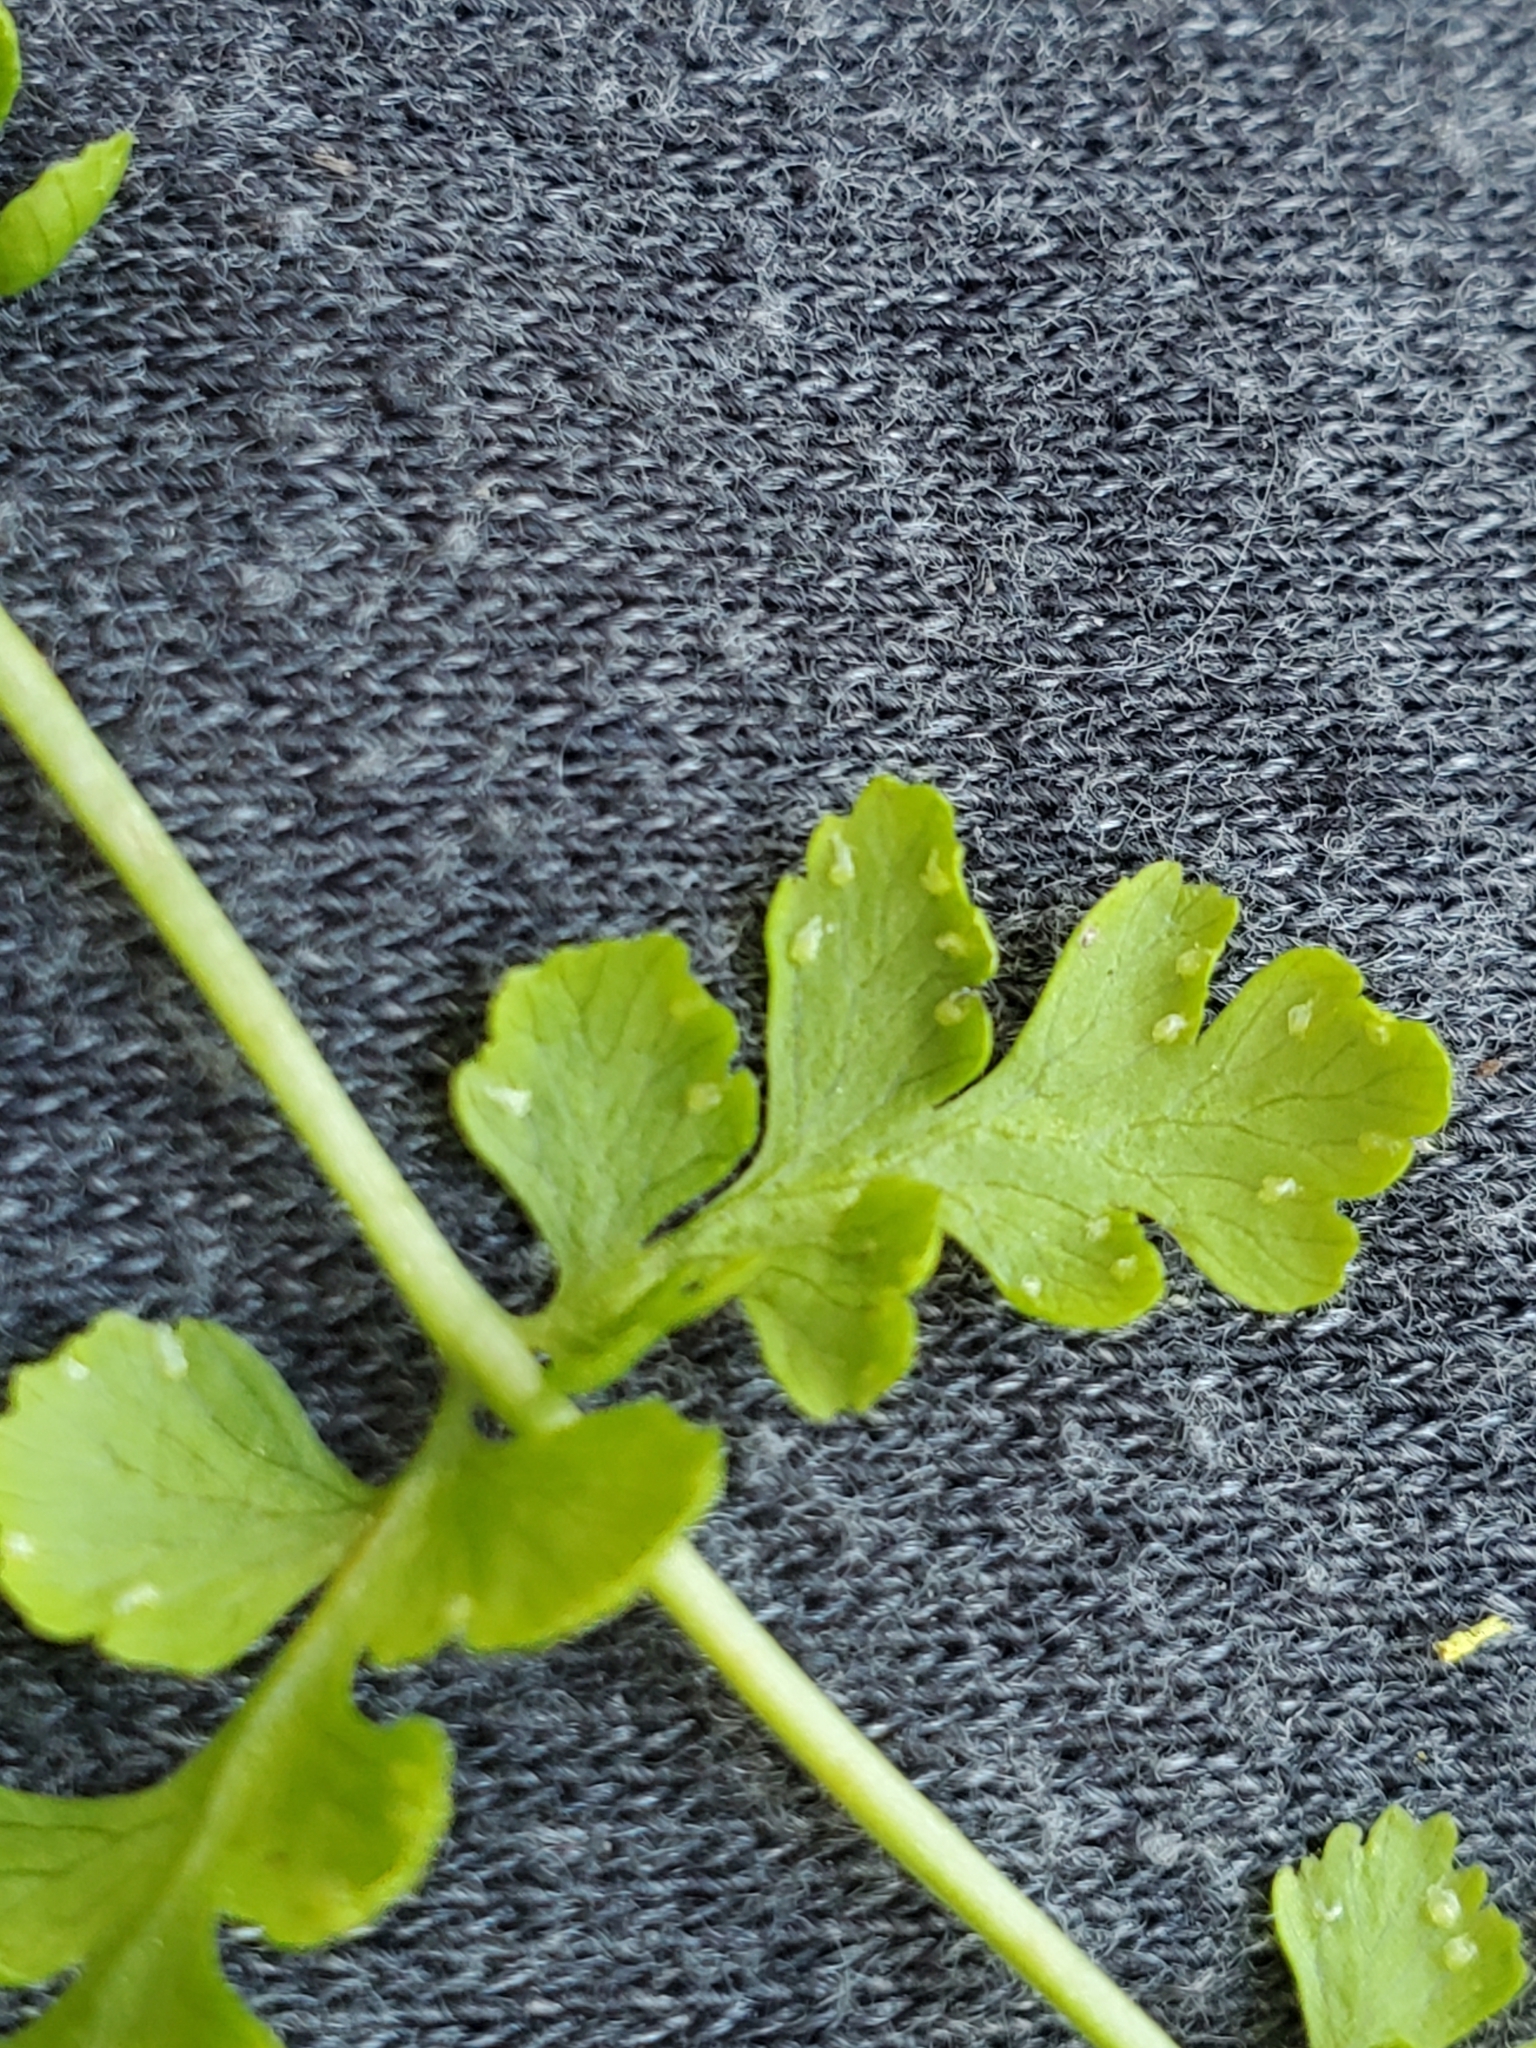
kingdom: Plantae
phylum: Tracheophyta
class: Polypodiopsida
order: Polypodiales
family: Cystopteridaceae
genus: Cystopteris
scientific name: Cystopteris fragilis
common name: Brittle bladder fern
